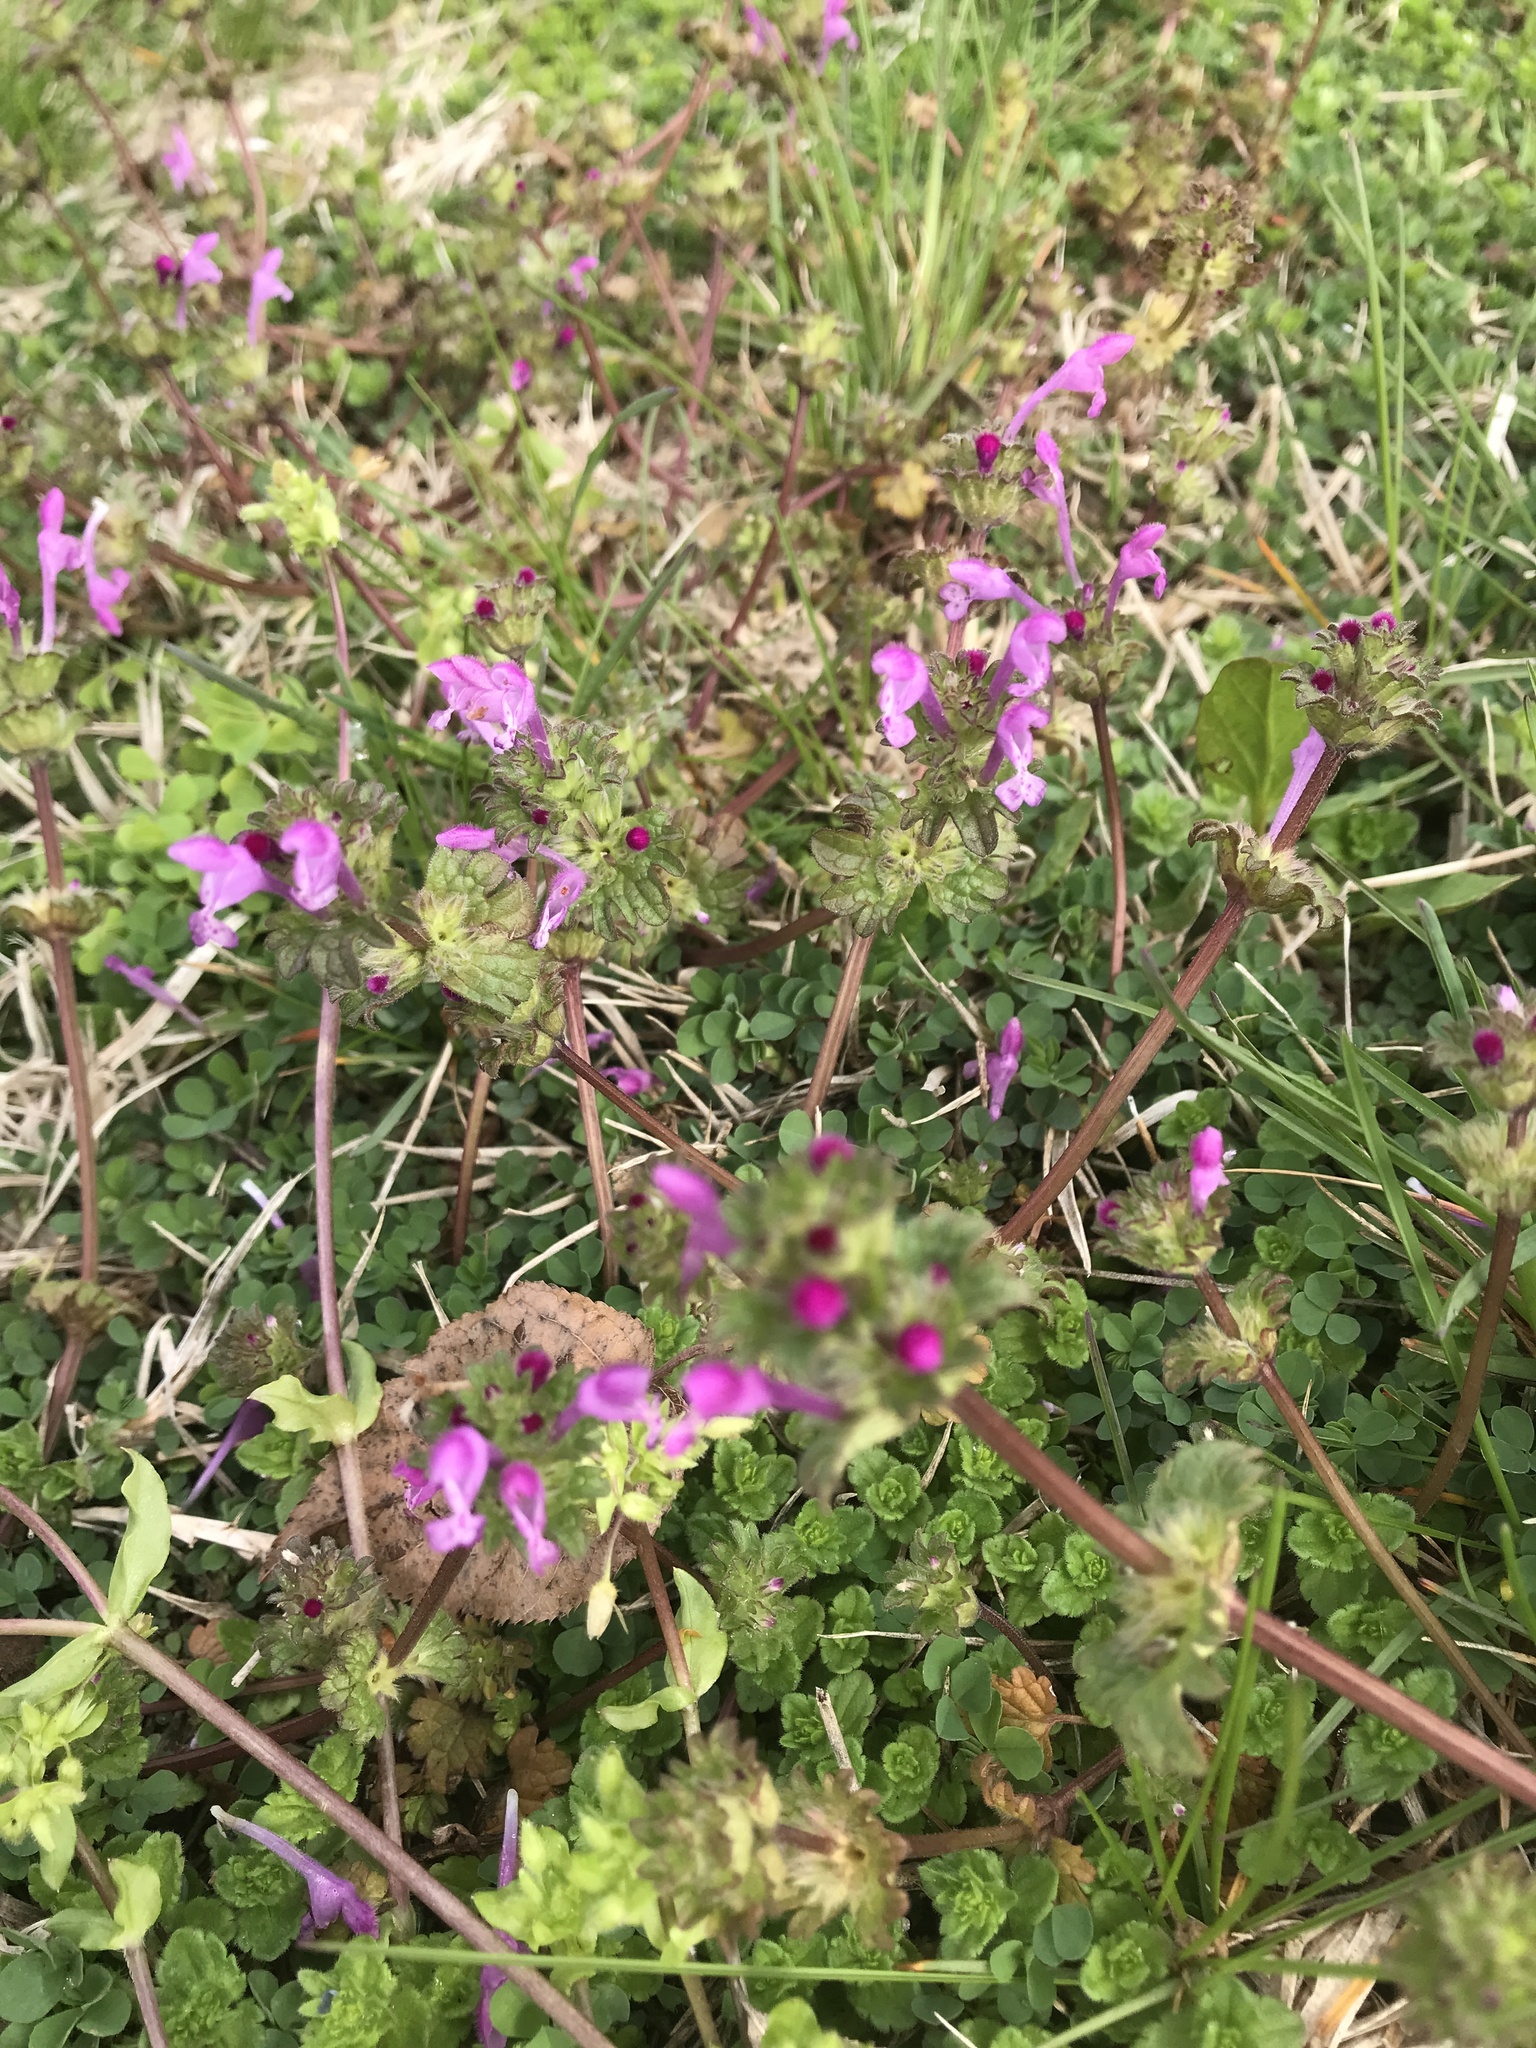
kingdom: Plantae
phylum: Tracheophyta
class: Magnoliopsida
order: Lamiales
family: Lamiaceae
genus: Lamium
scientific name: Lamium amplexicaule
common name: Henbit dead-nettle
